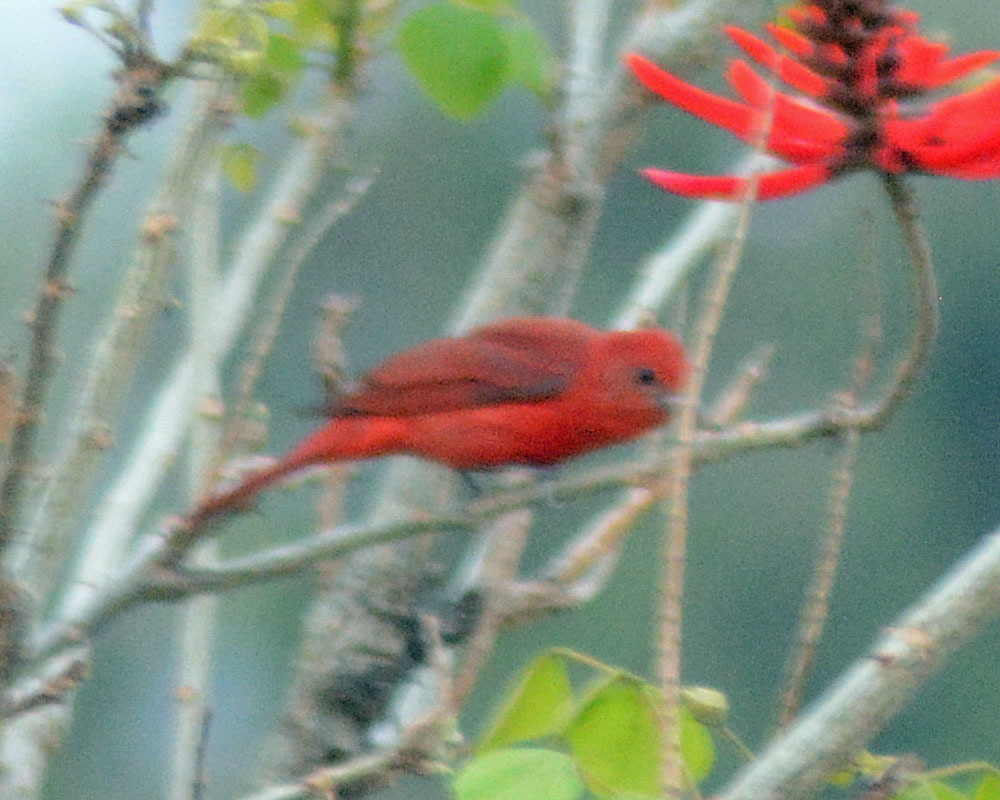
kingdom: Animalia
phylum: Chordata
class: Aves
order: Passeriformes
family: Cardinalidae
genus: Piranga
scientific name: Piranga flava
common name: Red tanager
